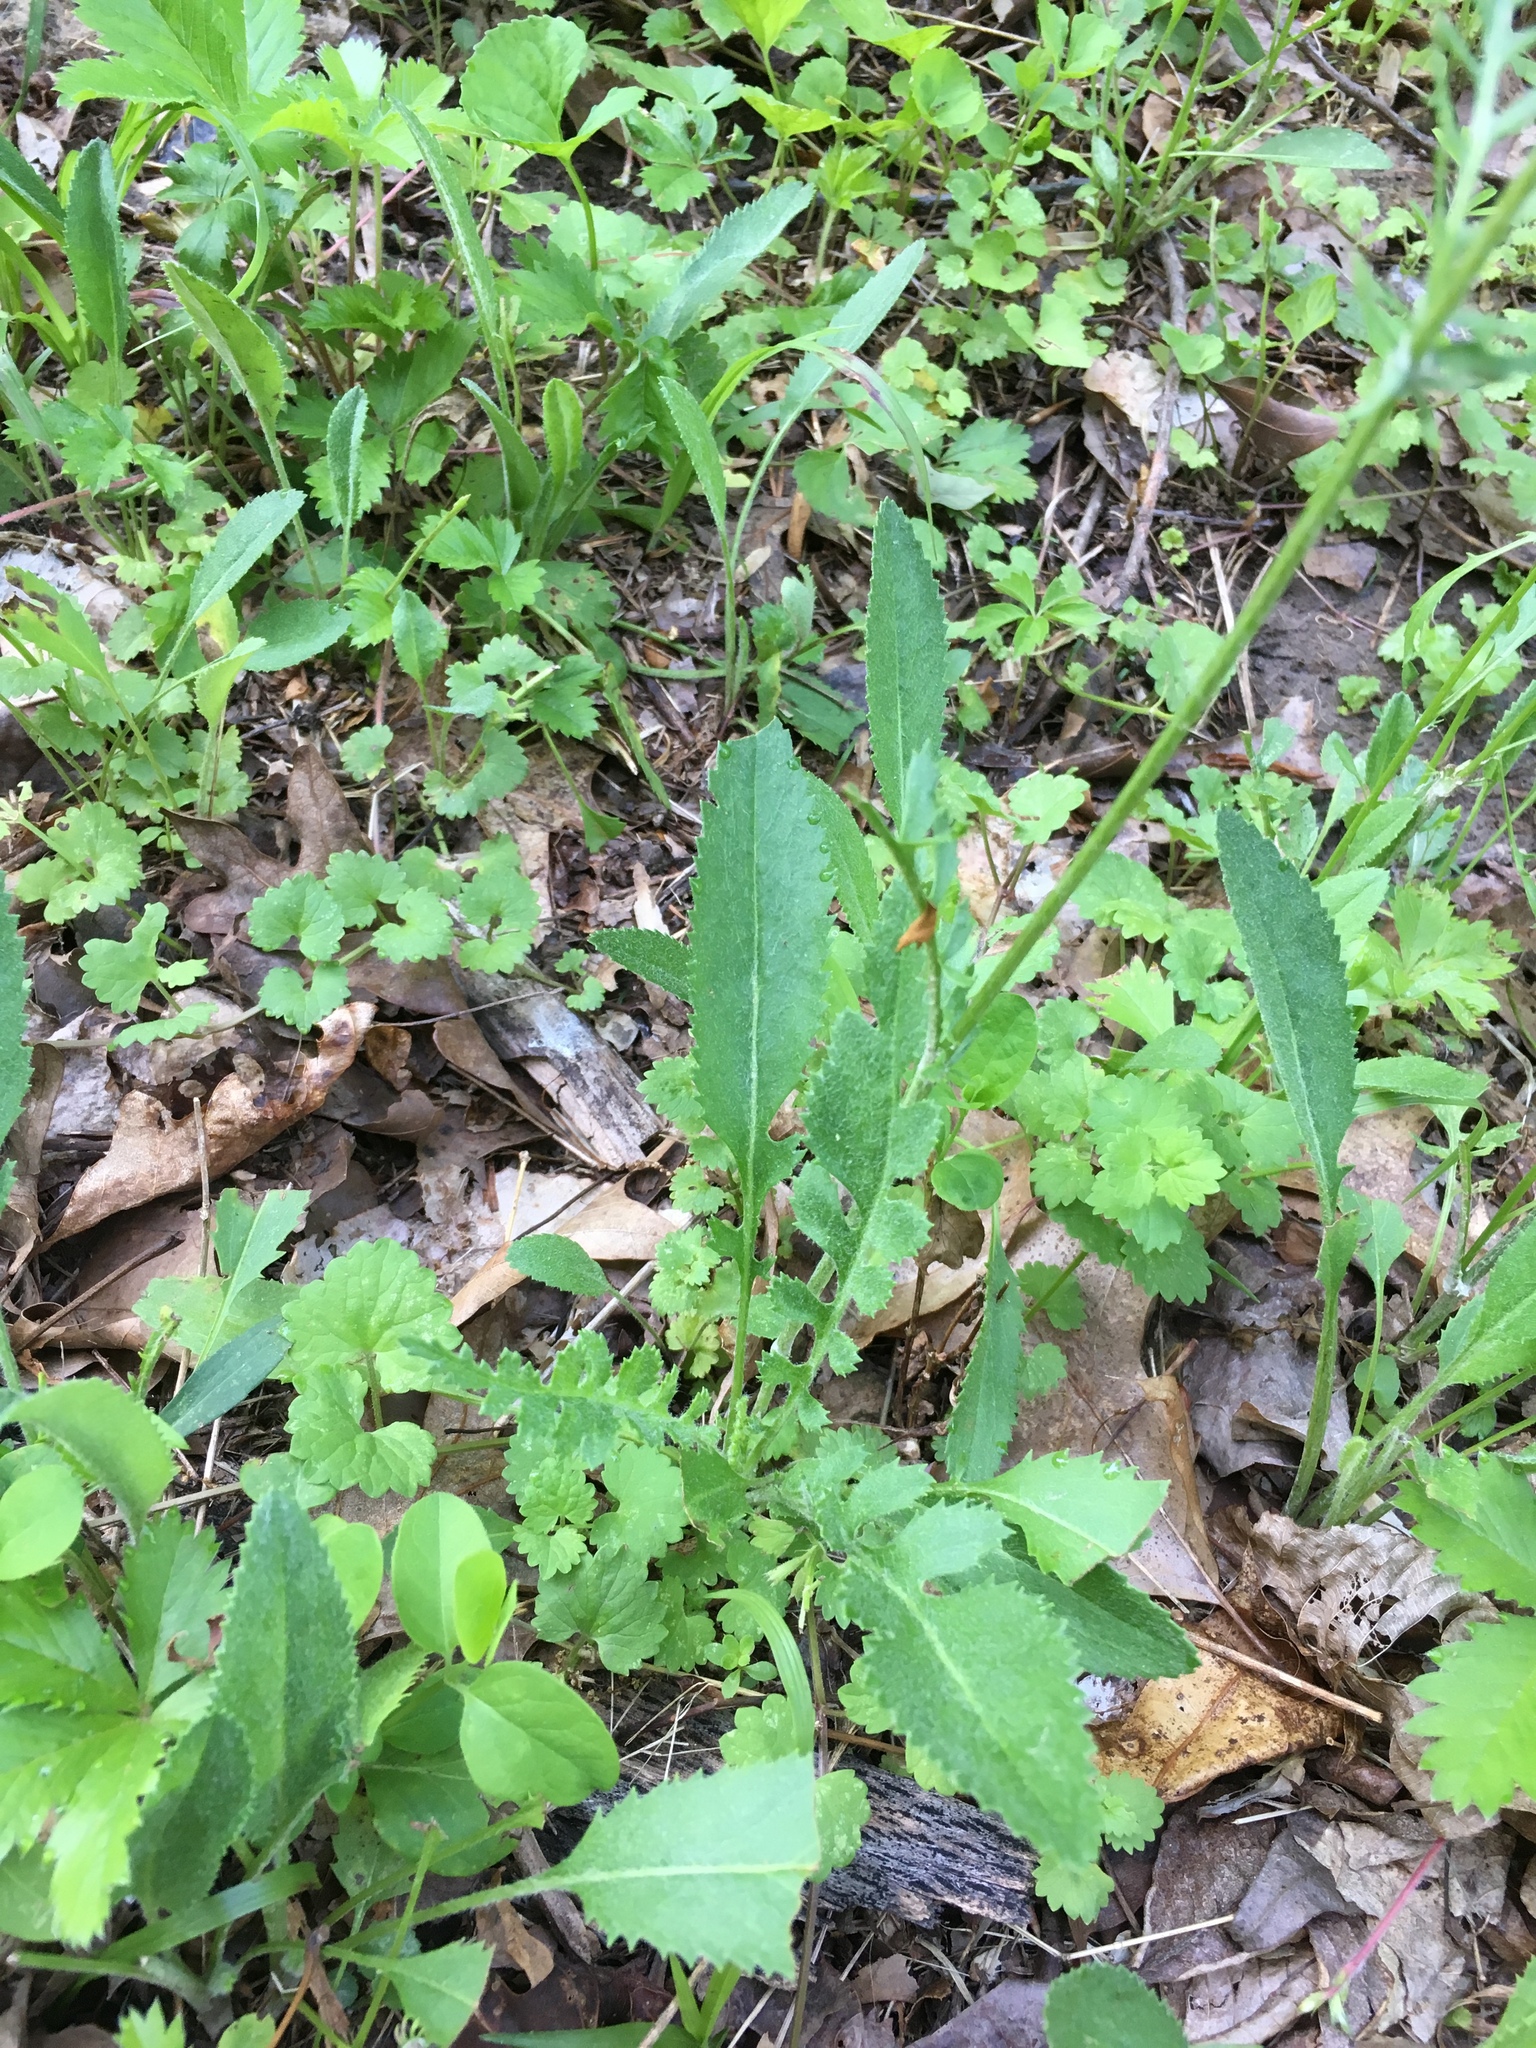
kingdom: Plantae
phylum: Tracheophyta
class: Magnoliopsida
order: Asterales
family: Asteraceae
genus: Packera
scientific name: Packera anonyma
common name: Small ragwort
